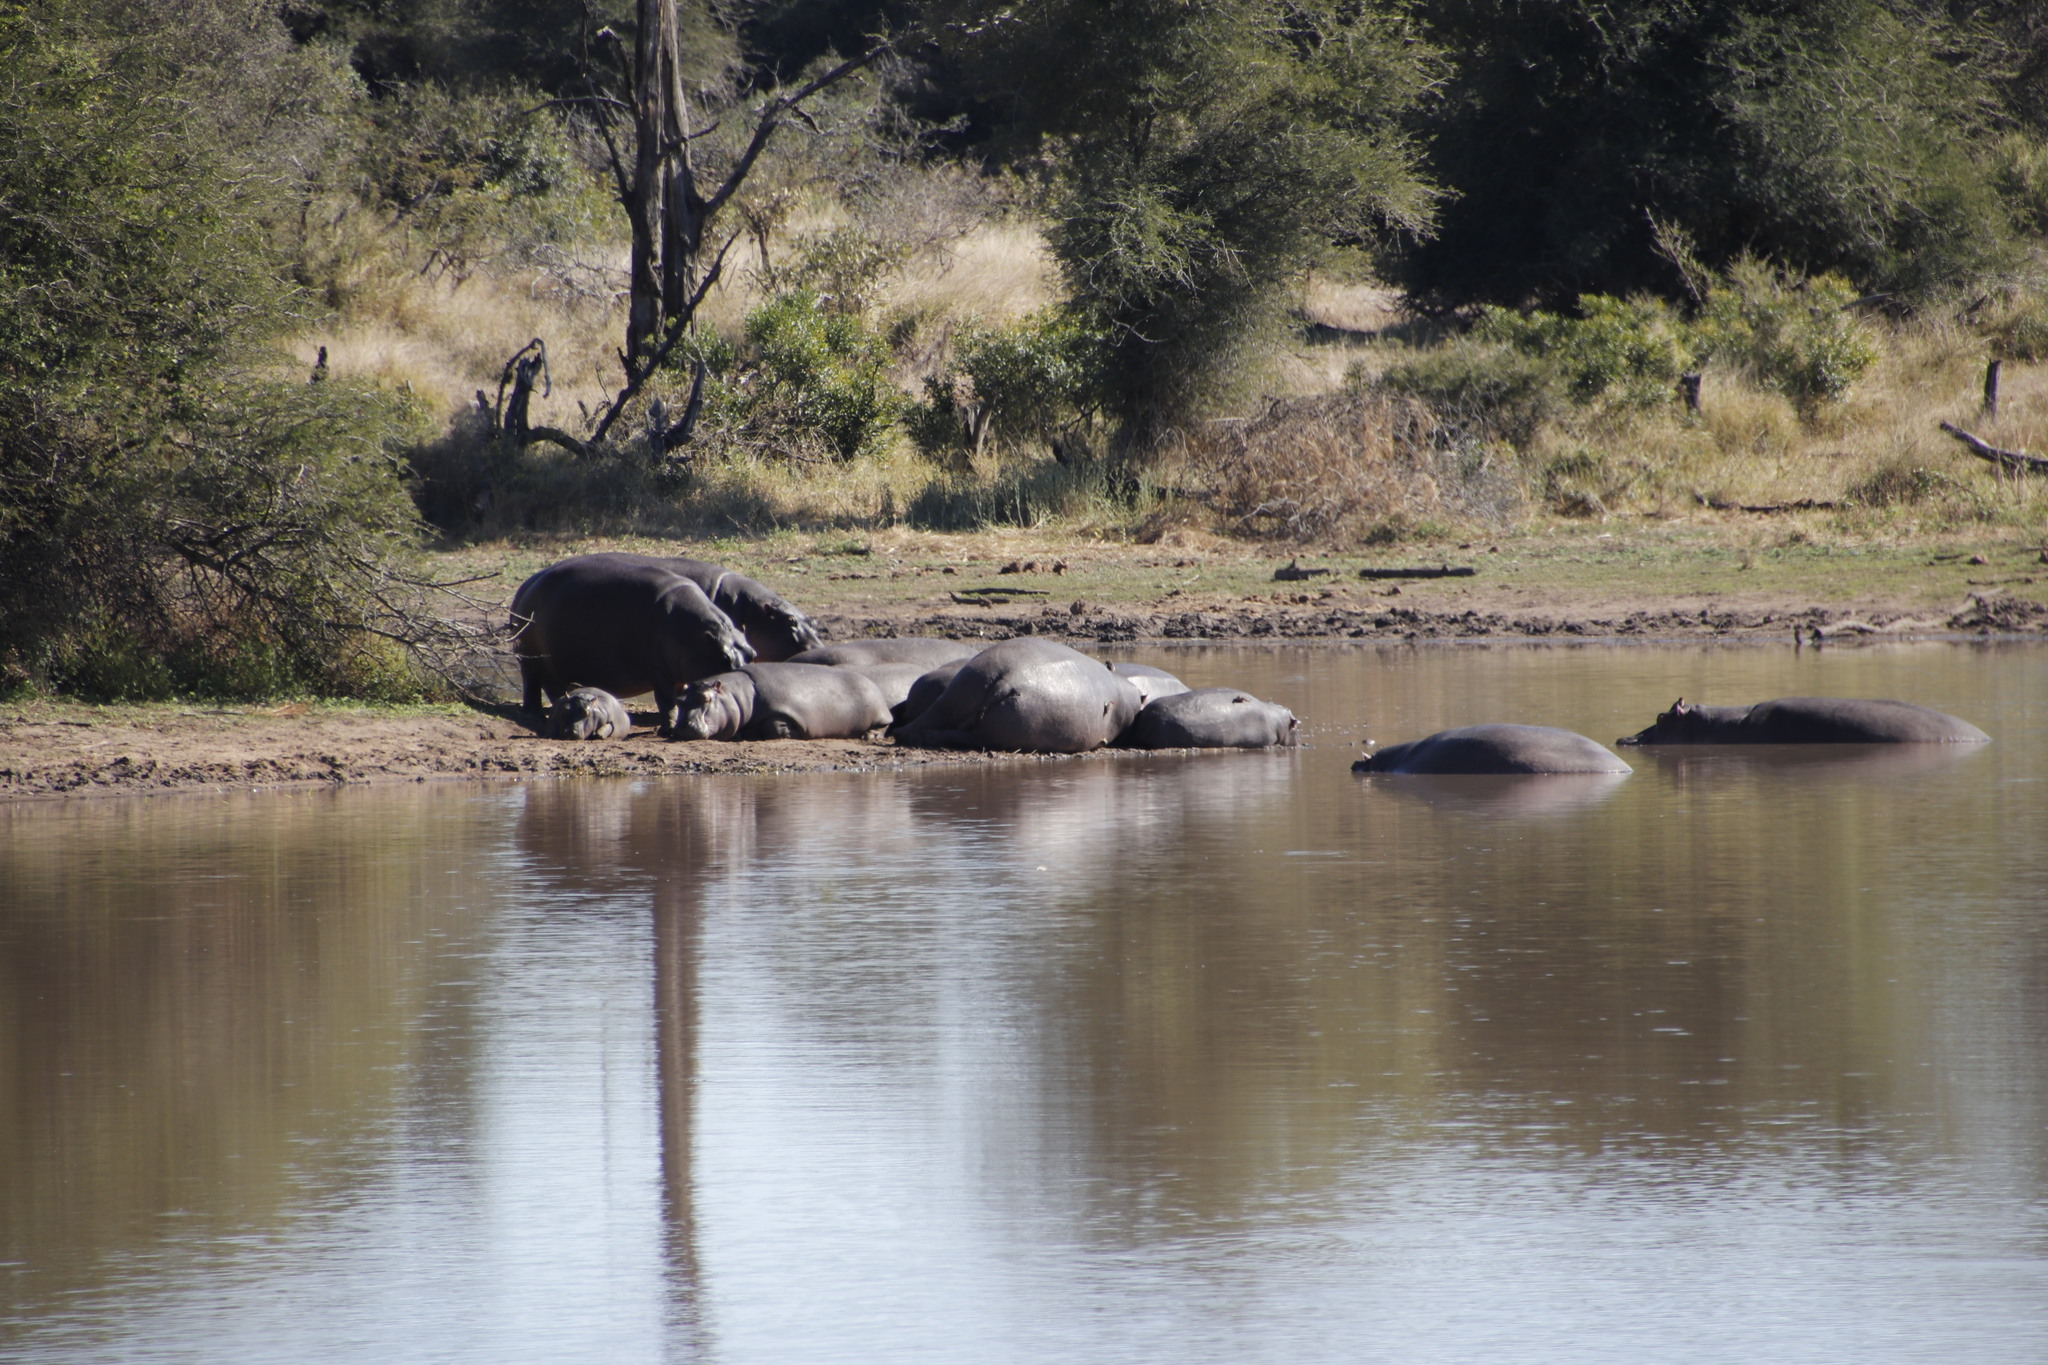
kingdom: Animalia
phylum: Chordata
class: Mammalia
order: Artiodactyla
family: Hippopotamidae
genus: Hippopotamus
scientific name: Hippopotamus amphibius
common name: Common hippopotamus
